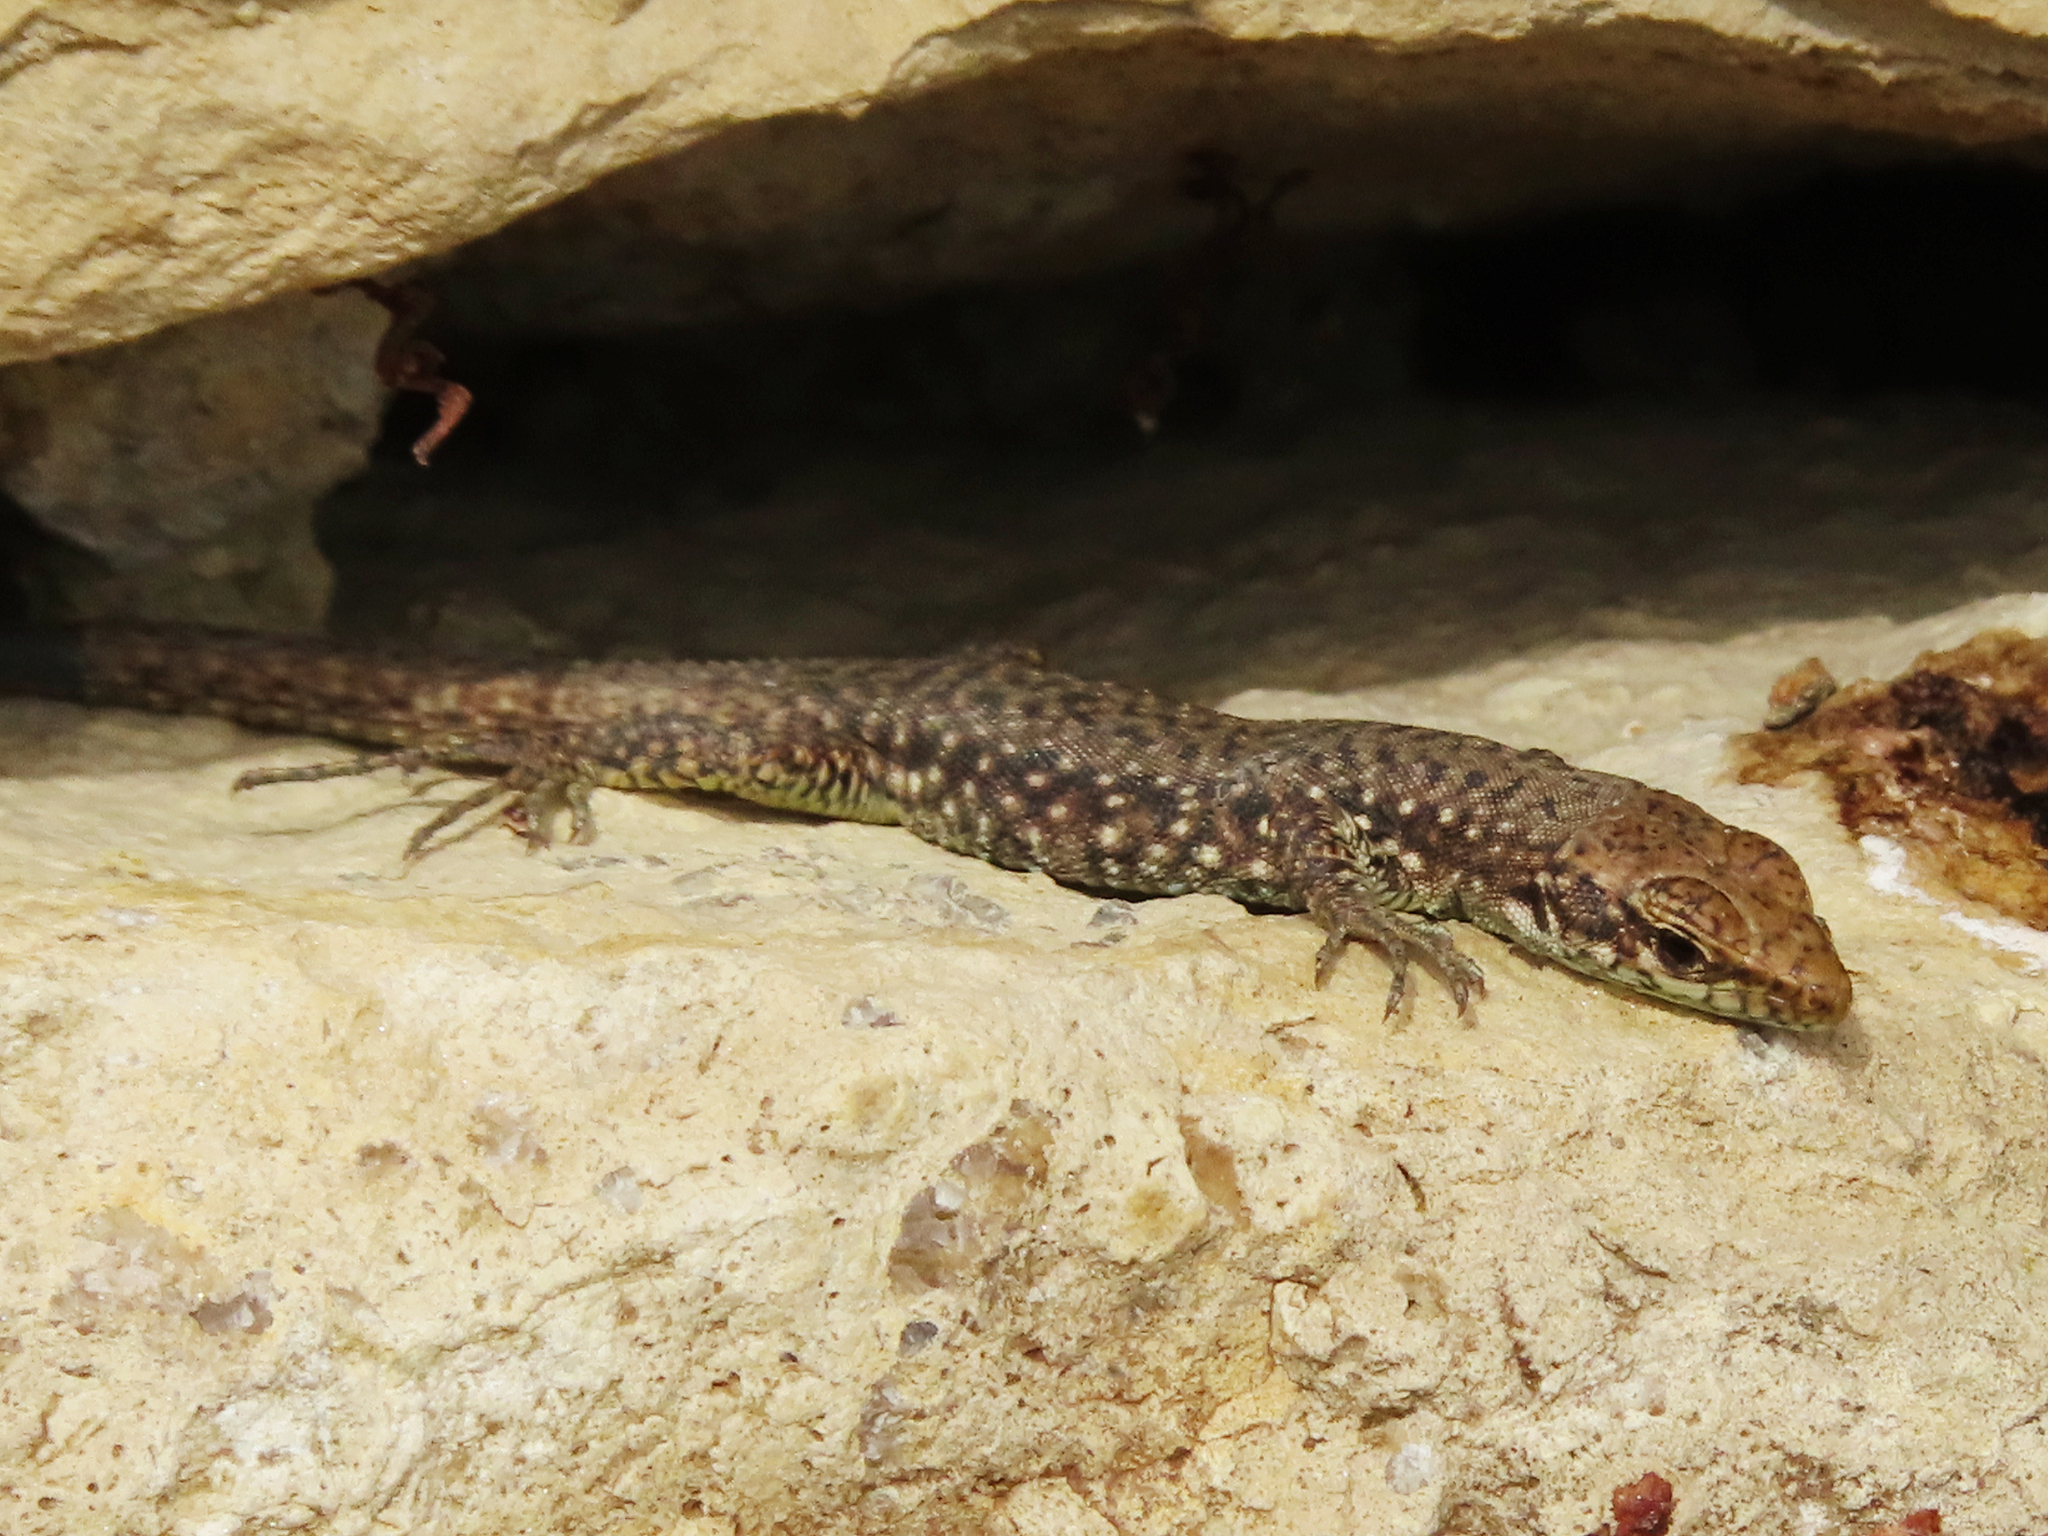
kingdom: Animalia
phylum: Chordata
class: Squamata
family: Lacertidae
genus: Darevskia
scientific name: Darevskia rudis
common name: Spiny-tailed lizard
